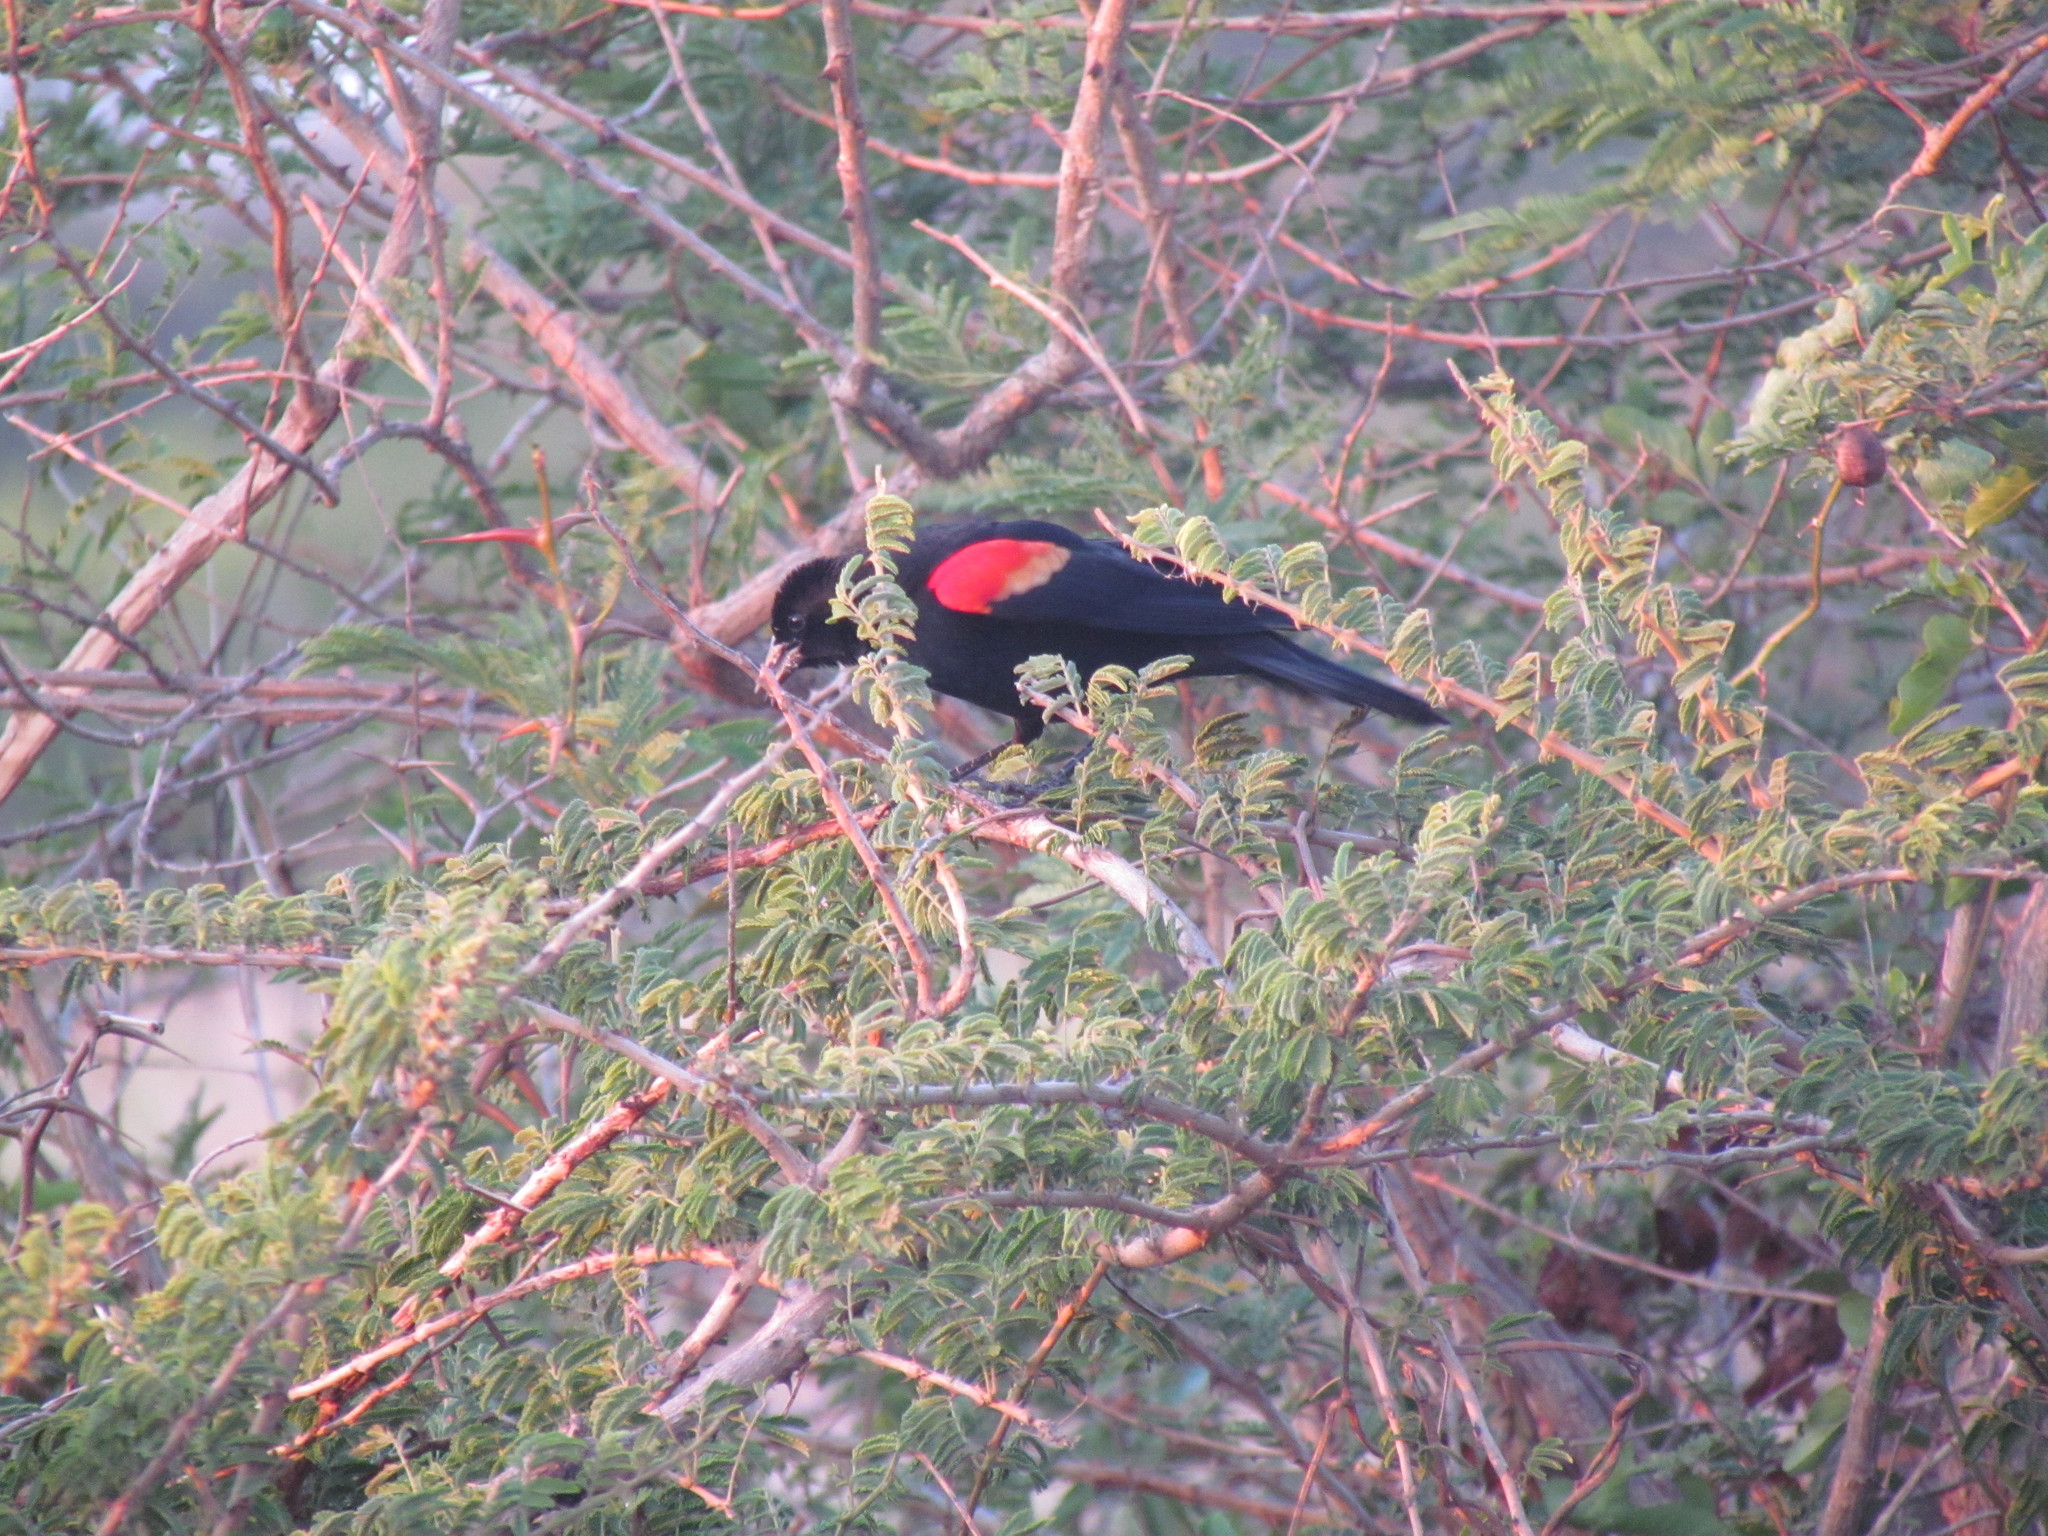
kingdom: Animalia
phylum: Chordata
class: Aves
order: Passeriformes
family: Icteridae
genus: Agelaius
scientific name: Agelaius phoeniceus
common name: Red-winged blackbird
